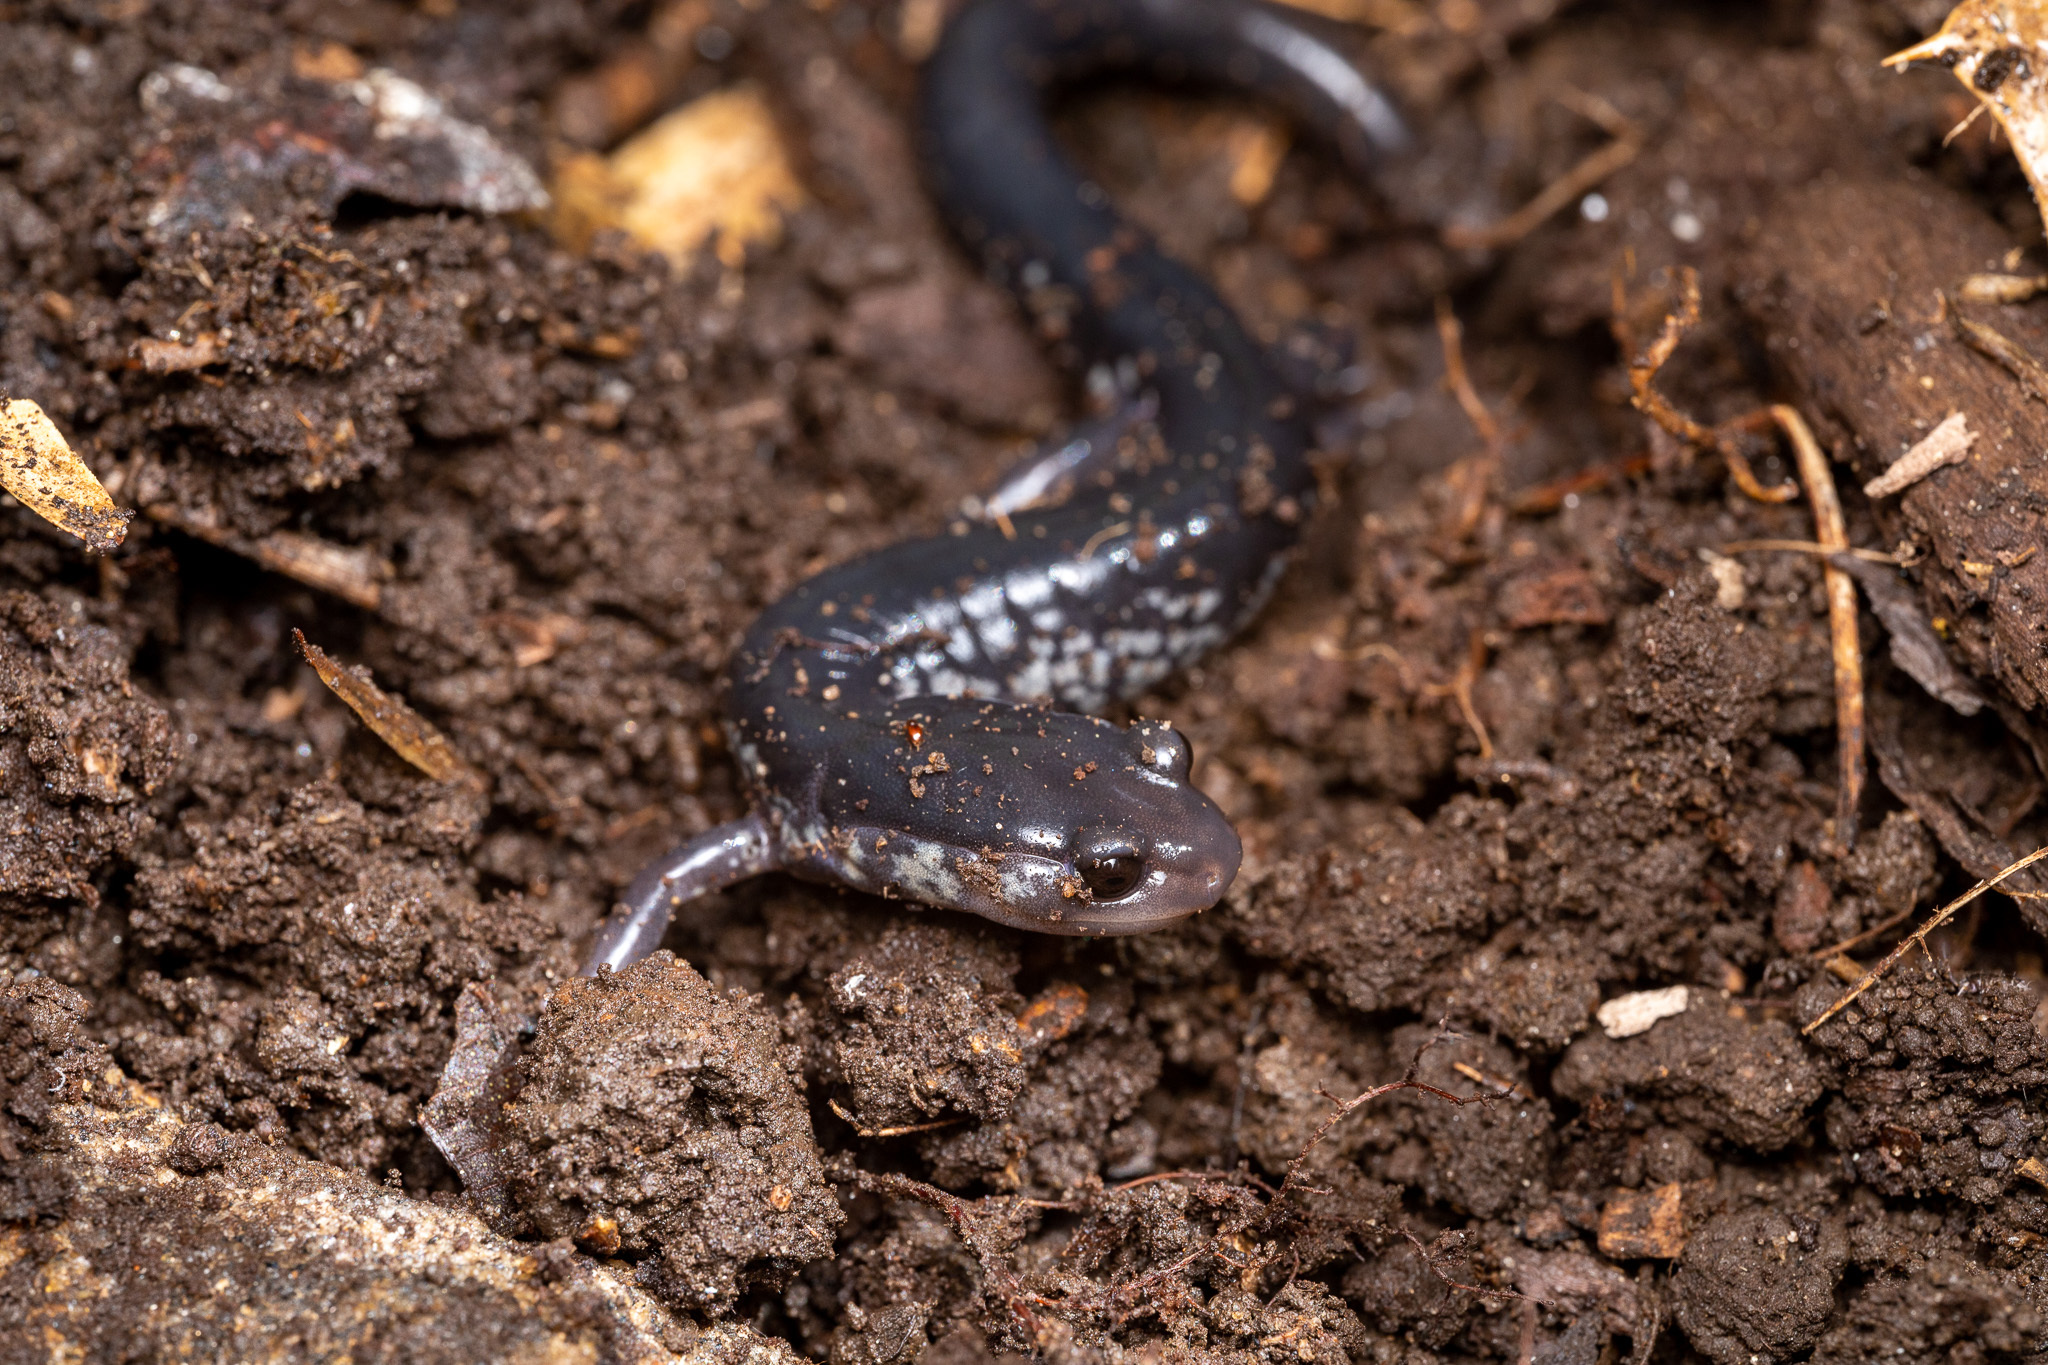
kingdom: Animalia
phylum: Chordata
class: Amphibia
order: Caudata
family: Plethodontidae
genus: Plethodon
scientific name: Plethodon chattahoochee
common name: Chattahoochee slimy salamander
